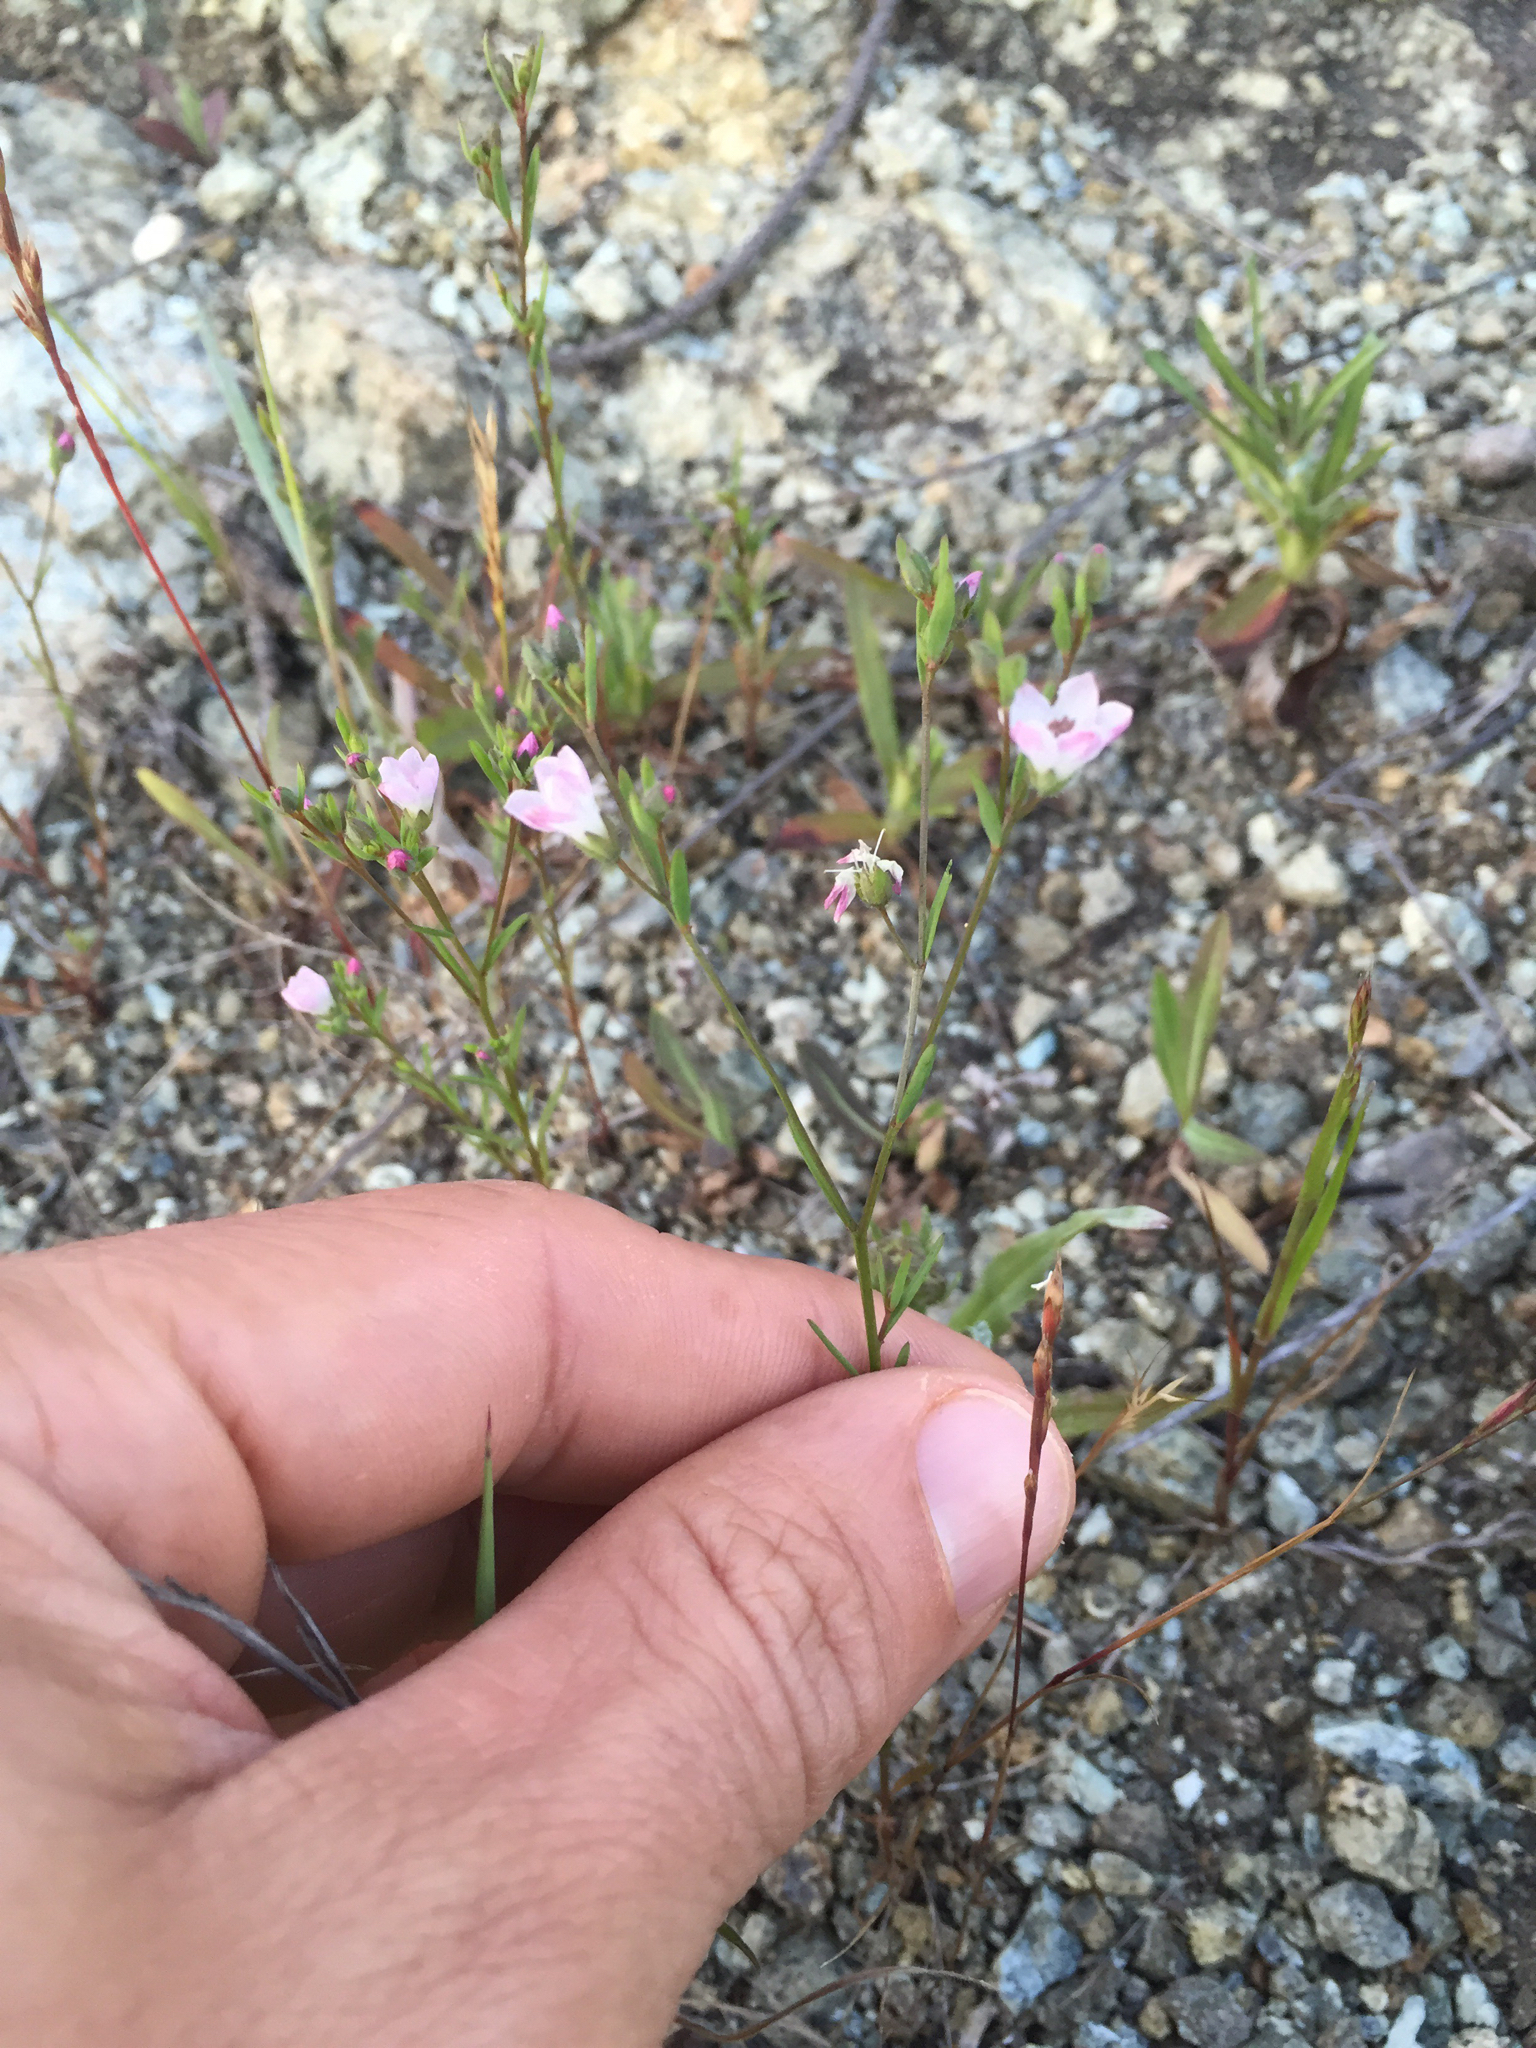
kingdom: Plantae
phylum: Tracheophyta
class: Magnoliopsida
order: Malpighiales
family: Linaceae
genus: Hesperolinon
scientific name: Hesperolinon congestum
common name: Marin dwarf-flax
